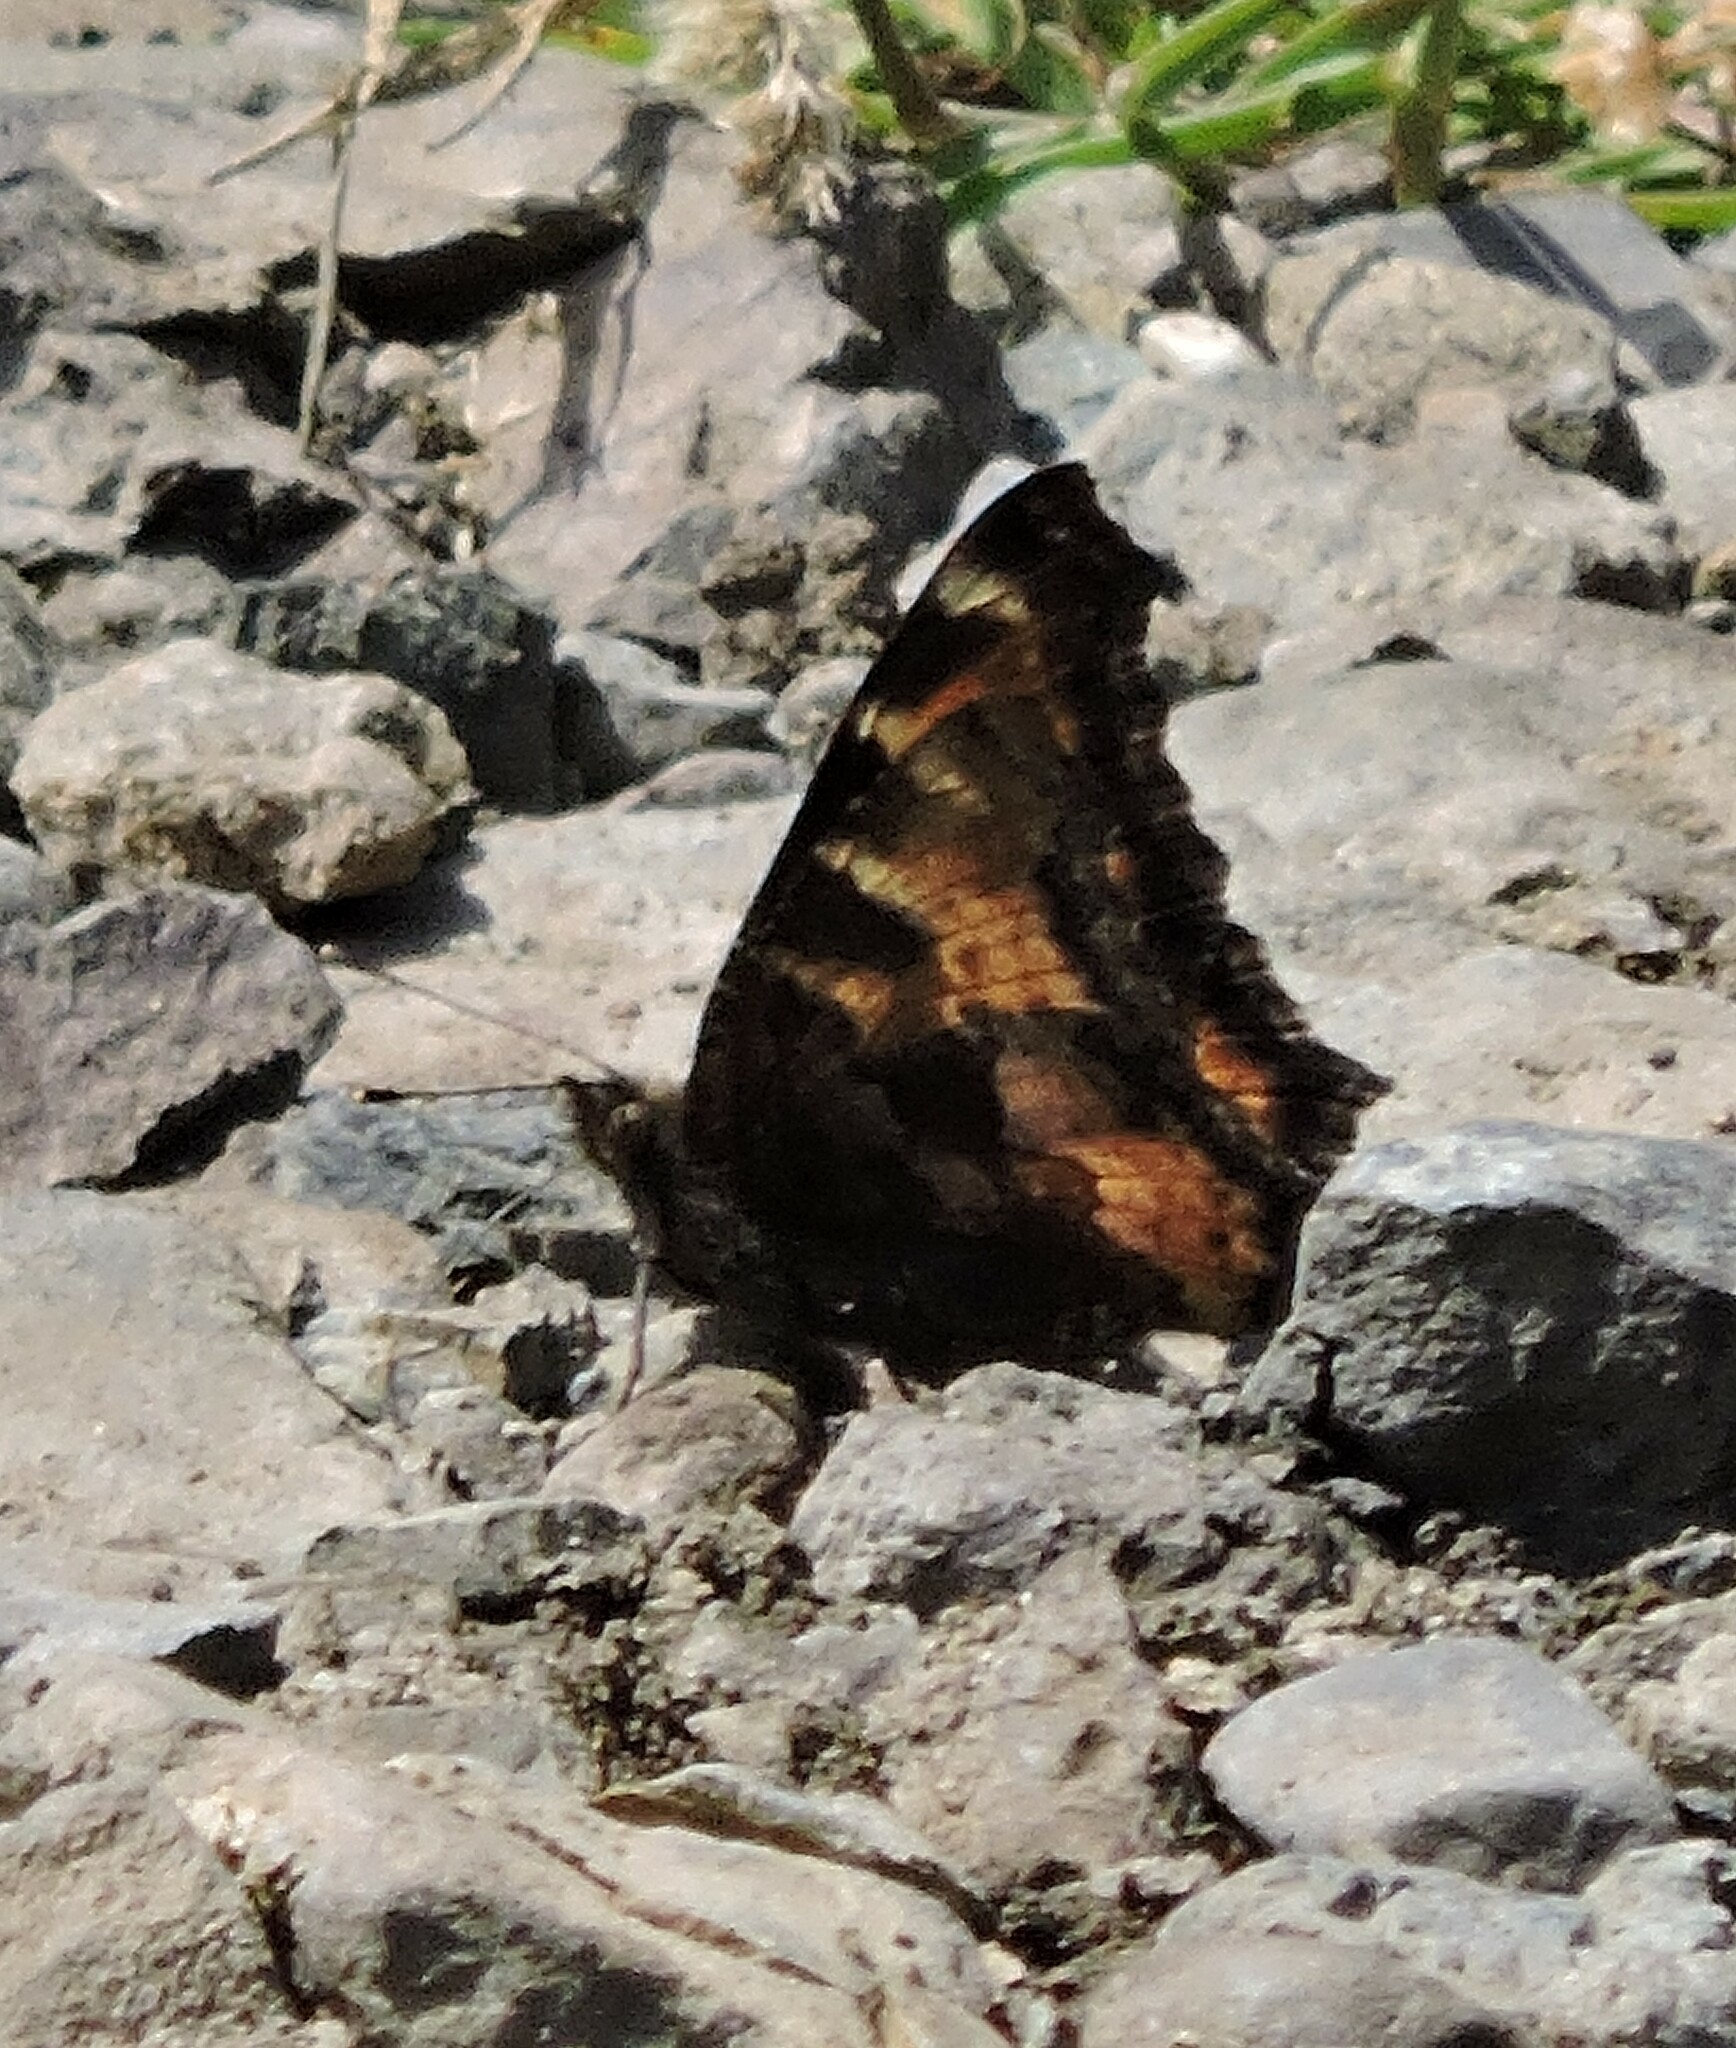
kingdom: Animalia
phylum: Arthropoda
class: Insecta
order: Lepidoptera
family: Nymphalidae
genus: Nymphalis
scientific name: Nymphalis californica
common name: California tortoiseshell
